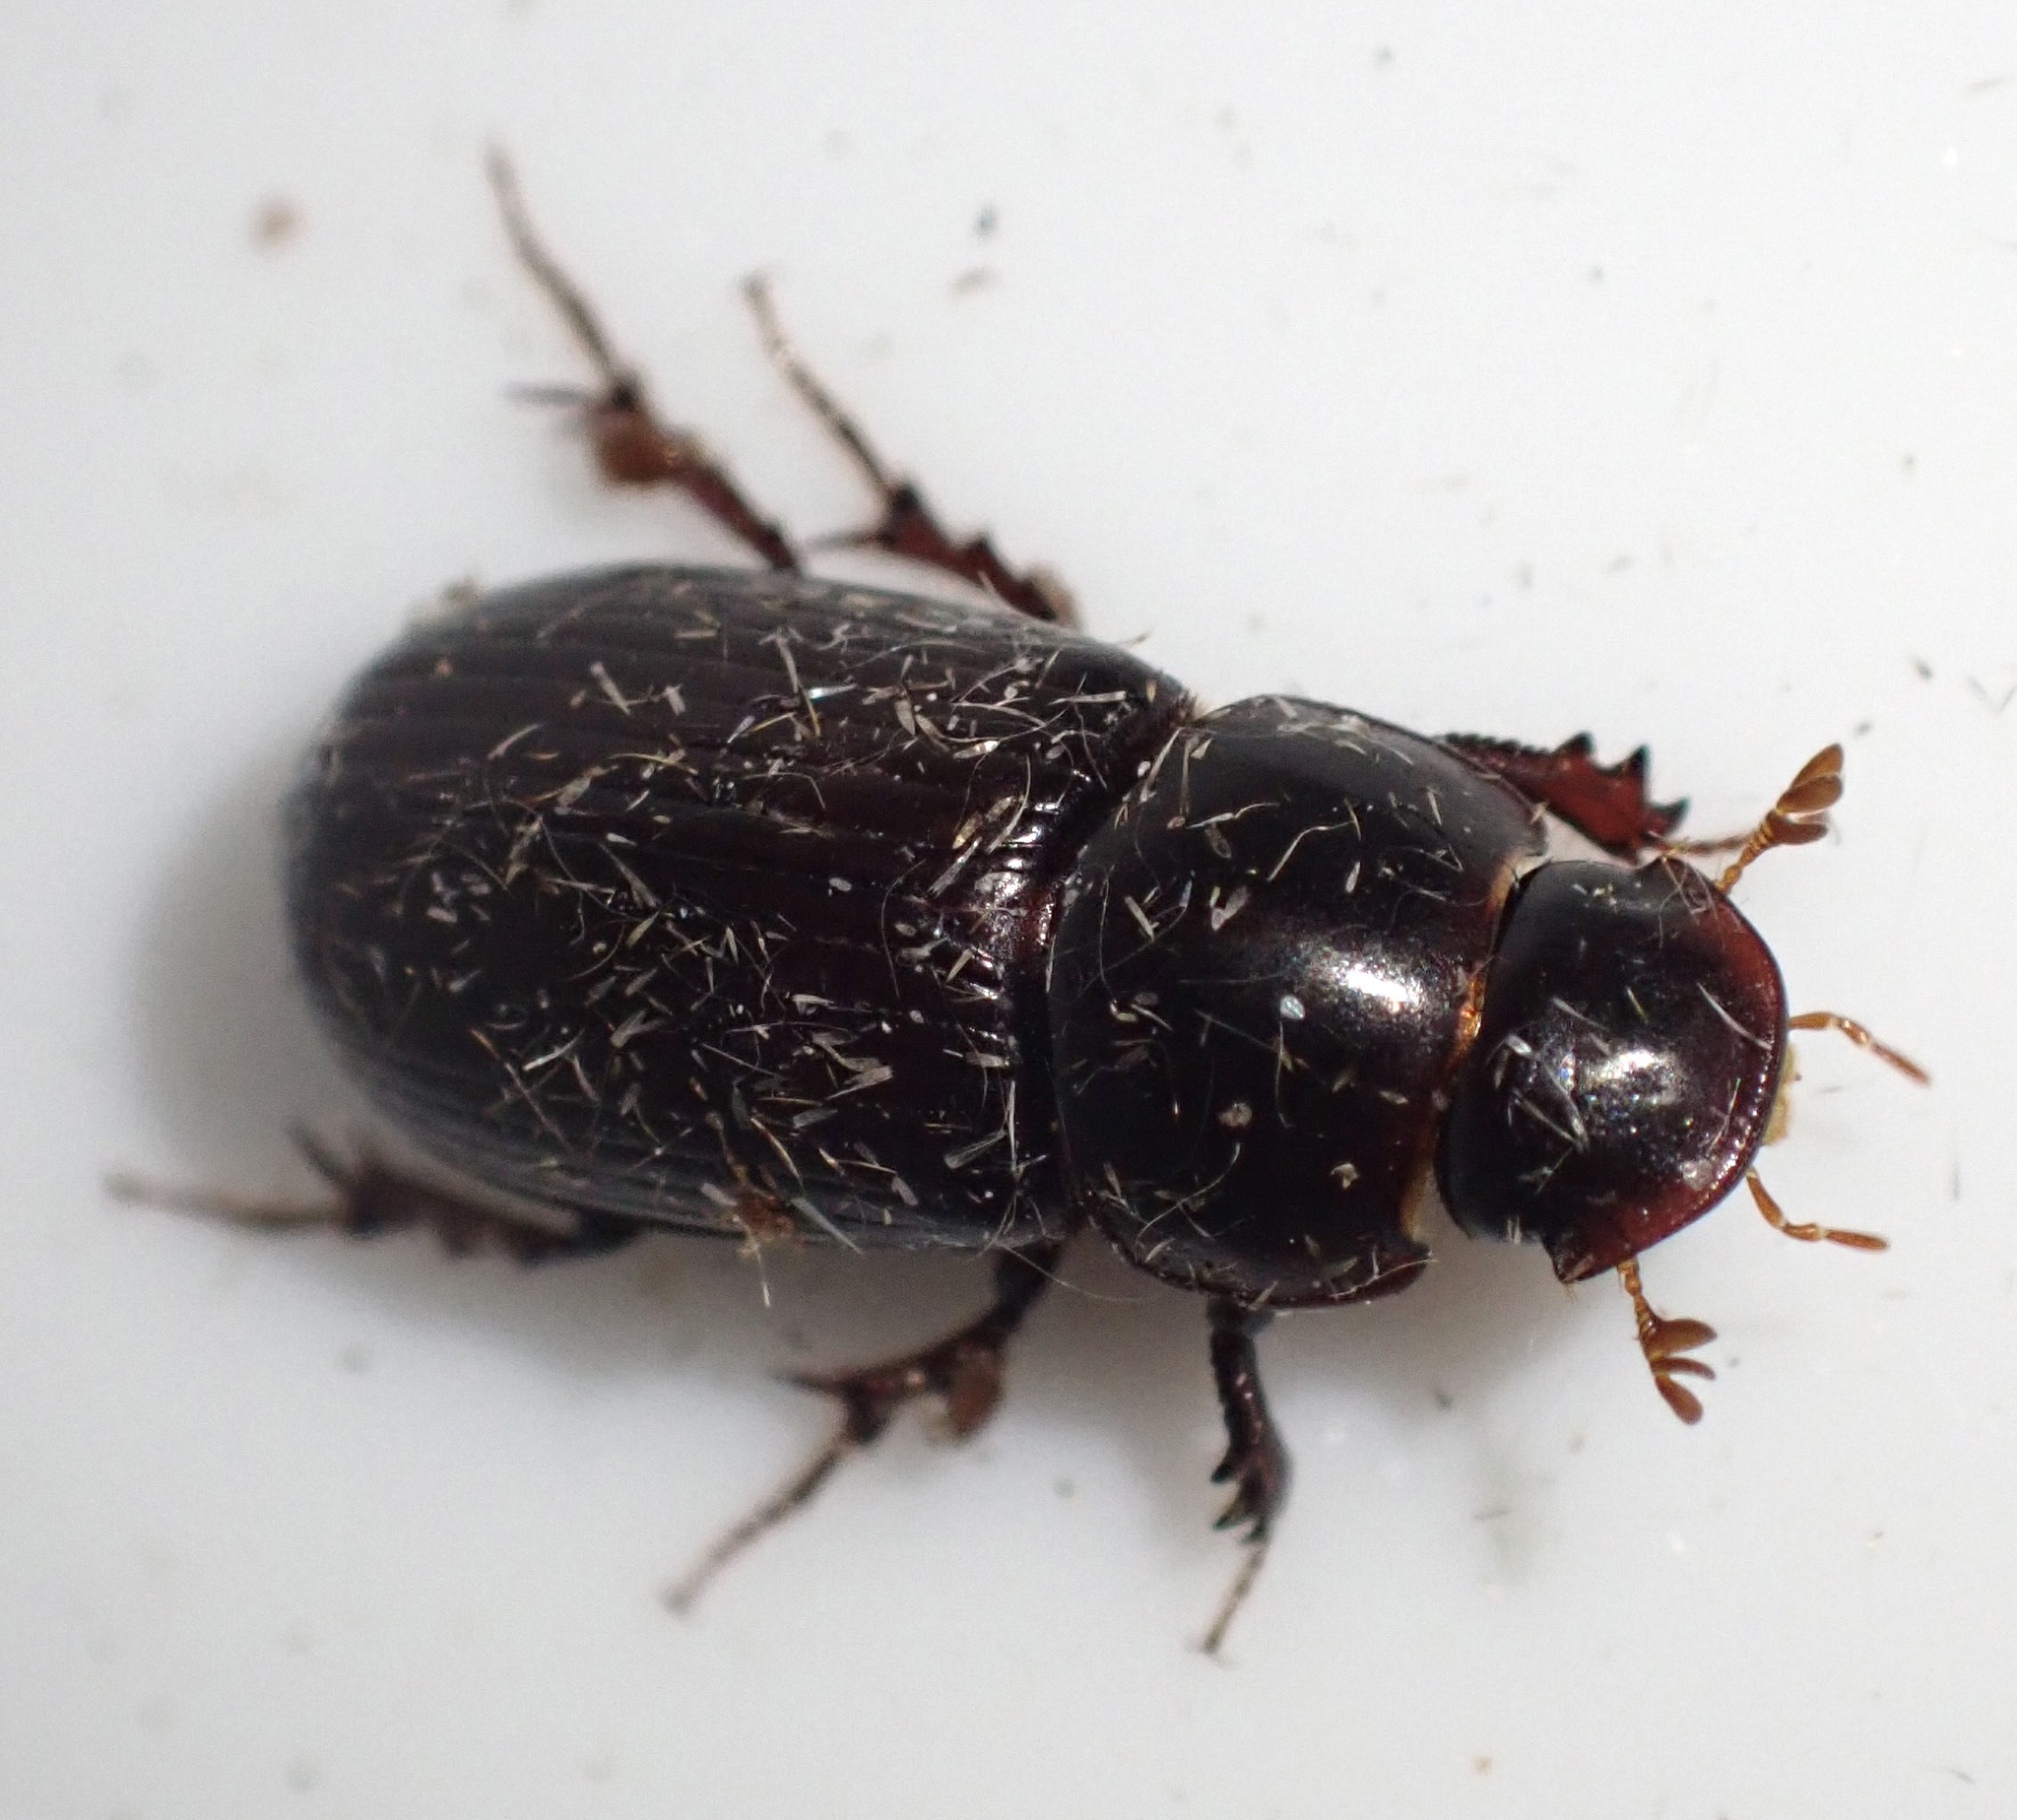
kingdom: Animalia
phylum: Arthropoda
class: Insecta
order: Coleoptera
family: Scarabaeidae
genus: Acrossus
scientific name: Acrossus rufipes
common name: Night-flying dung beetle
